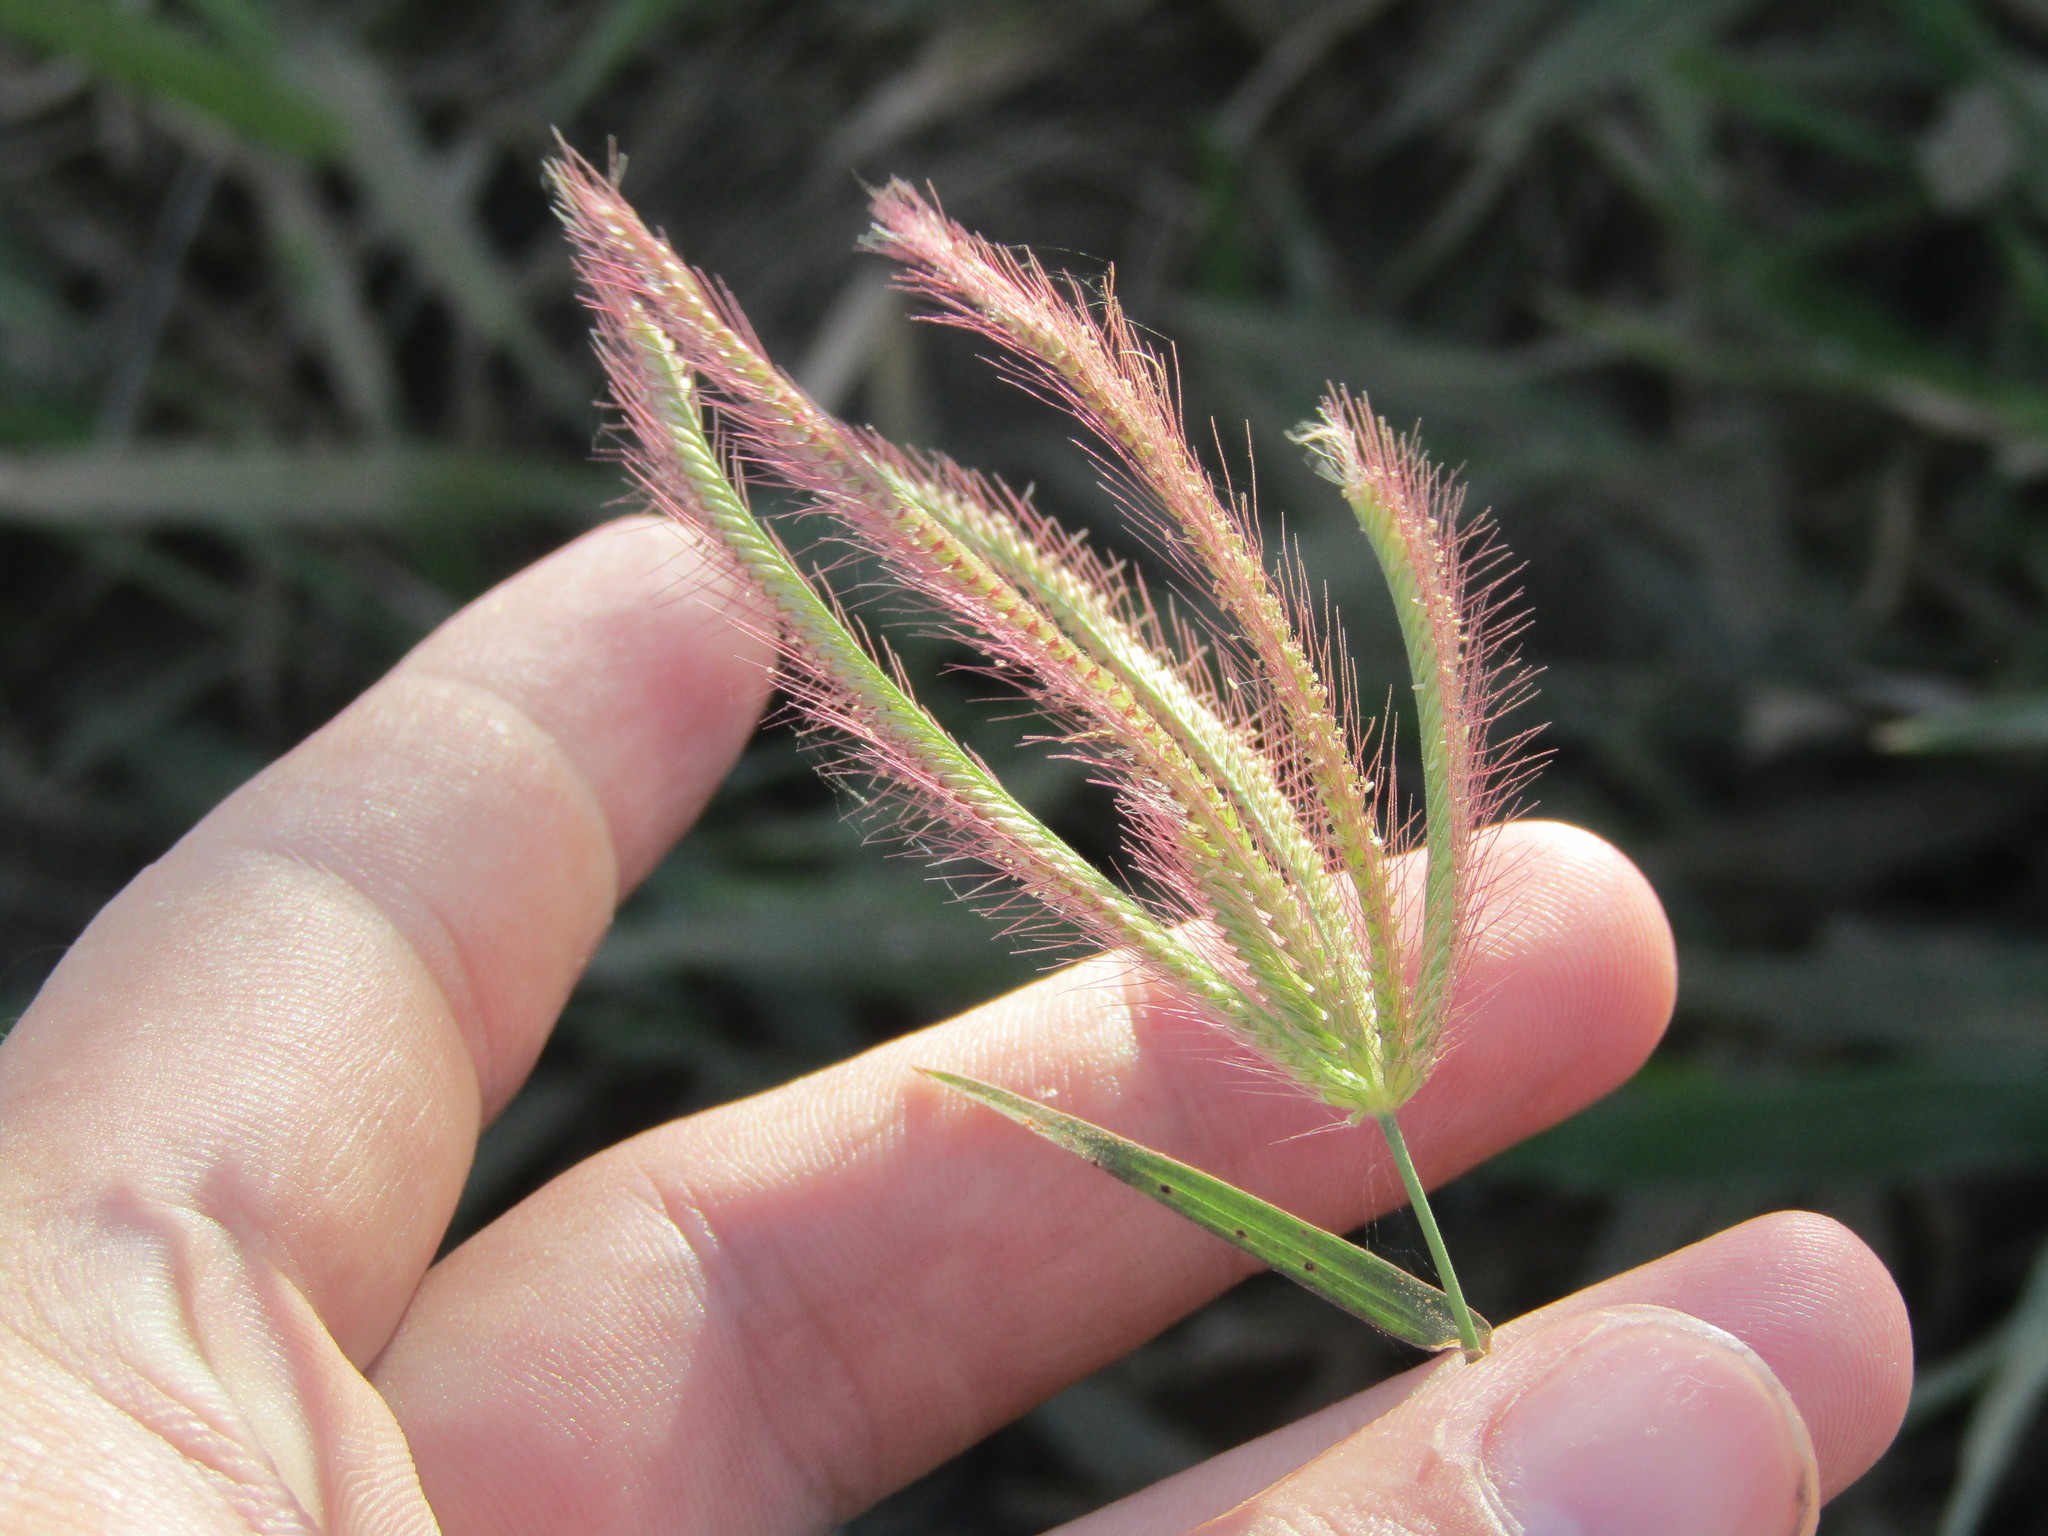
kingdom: Plantae
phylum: Tracheophyta
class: Liliopsida
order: Poales
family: Poaceae
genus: Chloris
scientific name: Chloris barbata
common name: Swollen fingergrass
